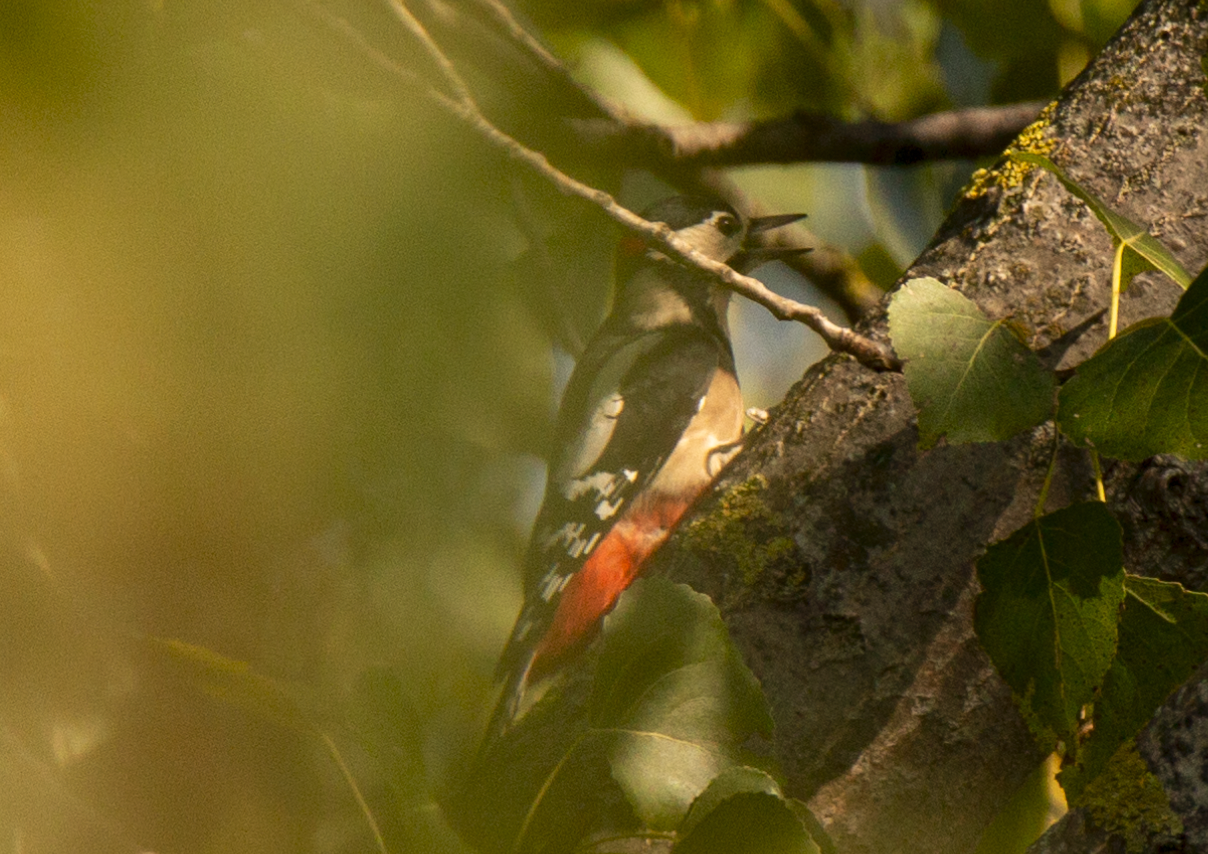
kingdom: Animalia
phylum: Chordata
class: Aves
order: Piciformes
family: Picidae
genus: Dendrocopos
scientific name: Dendrocopos major
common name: Great spotted woodpecker
